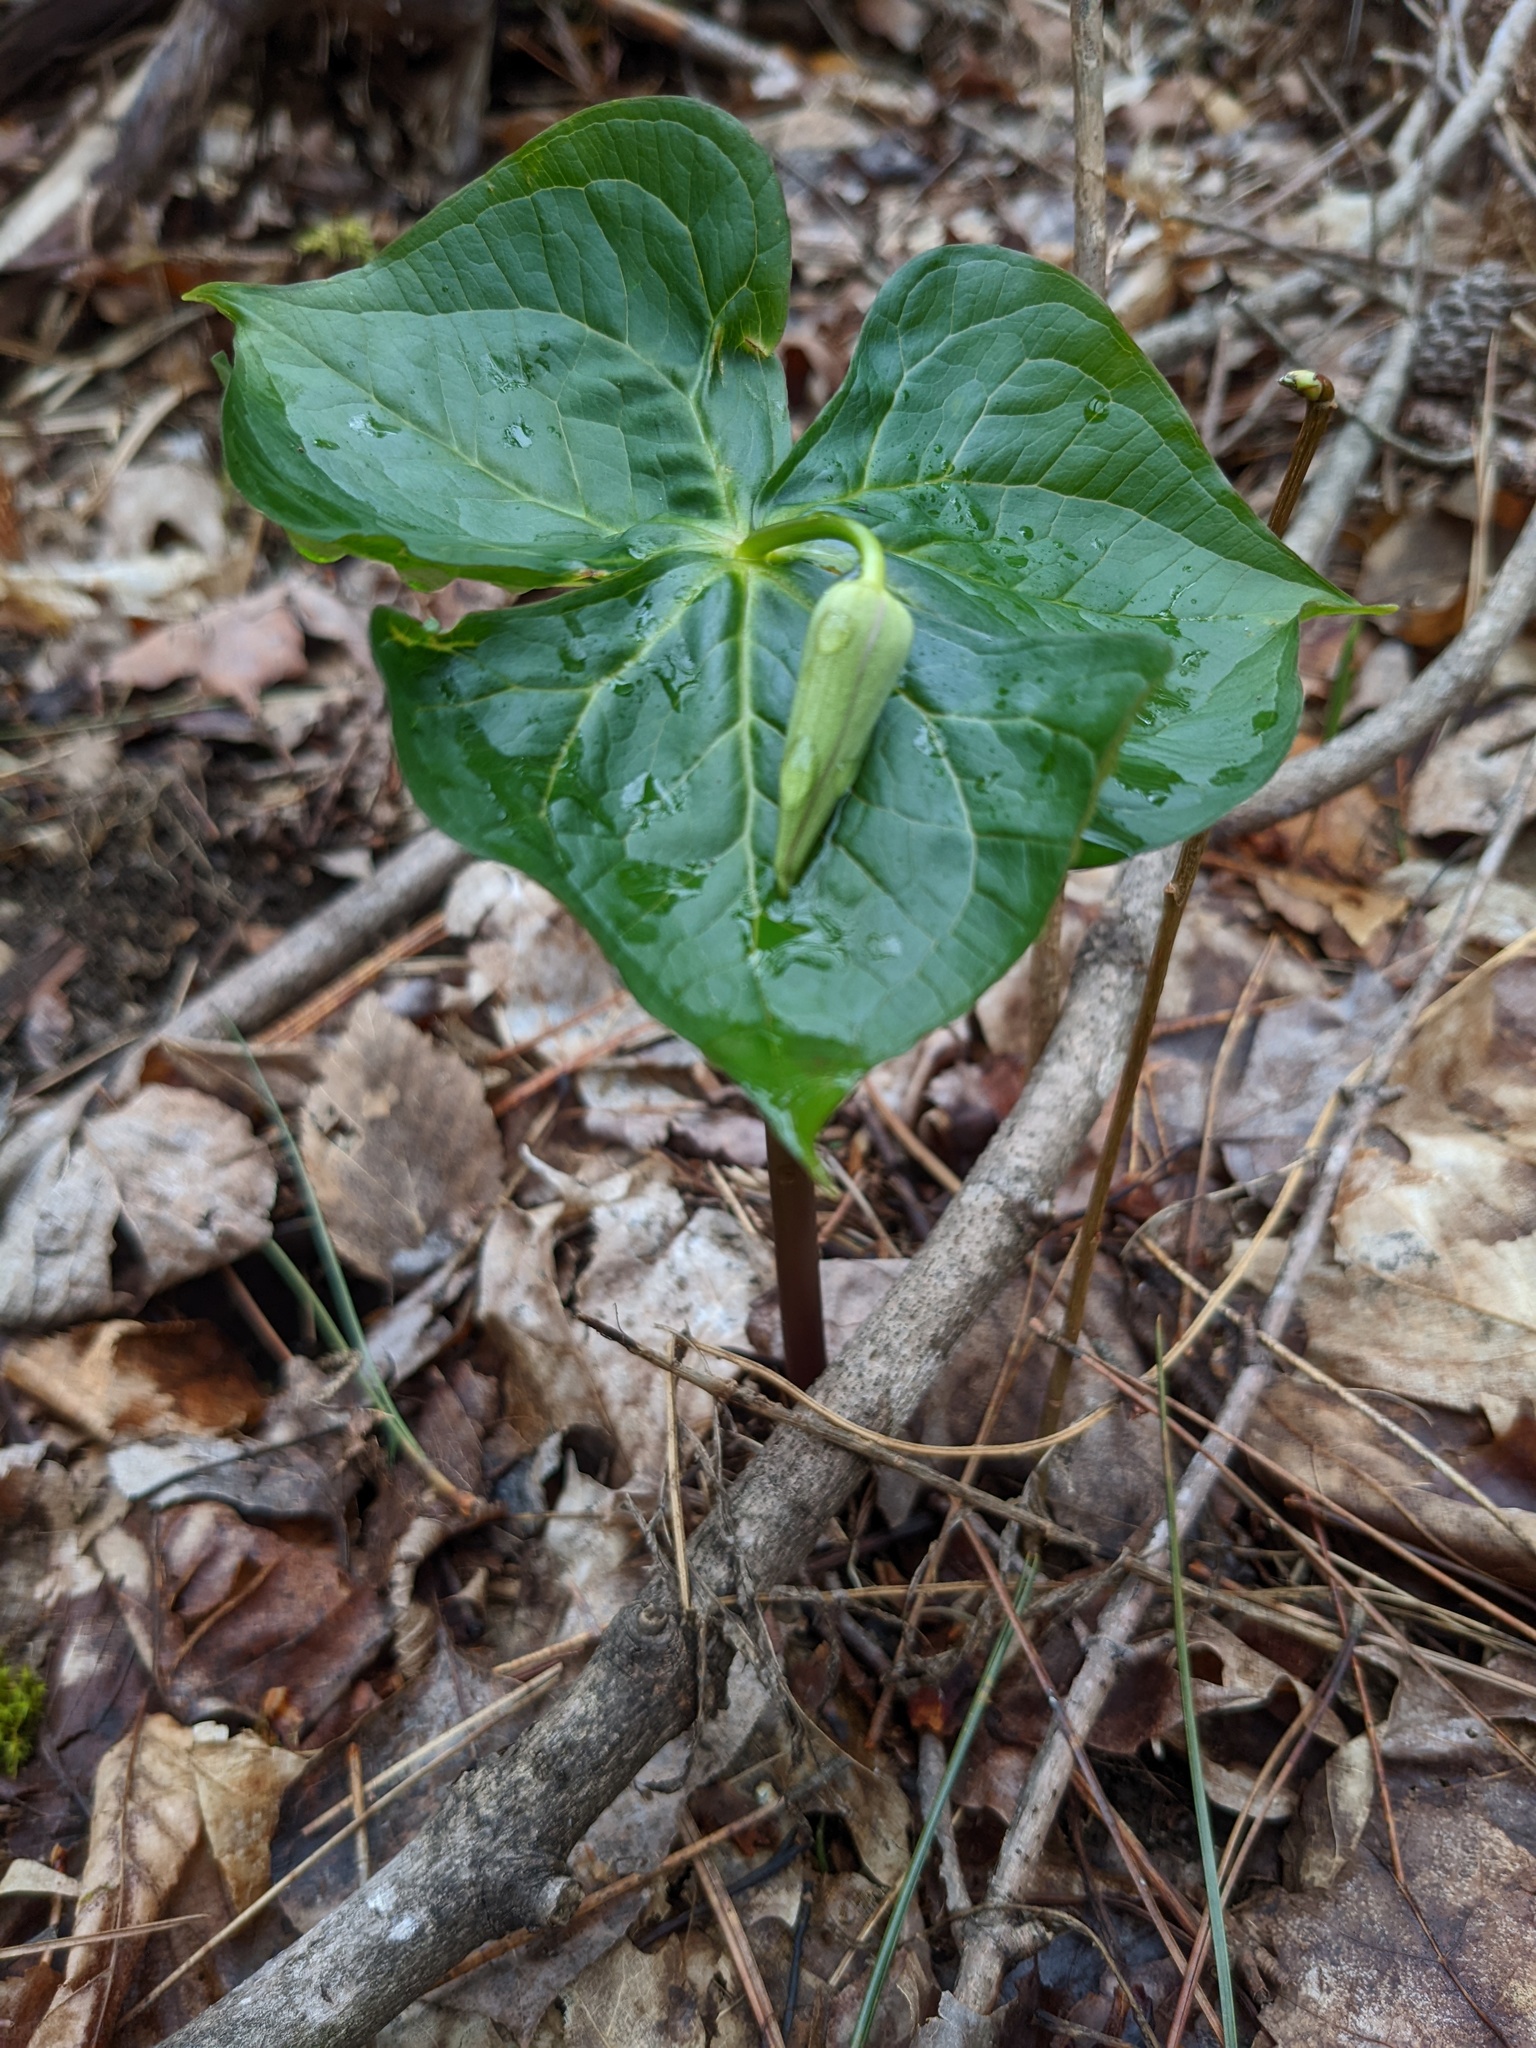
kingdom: Plantae
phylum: Tracheophyta
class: Liliopsida
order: Liliales
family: Melanthiaceae
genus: Trillium
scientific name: Trillium erectum
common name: Purple trillium
